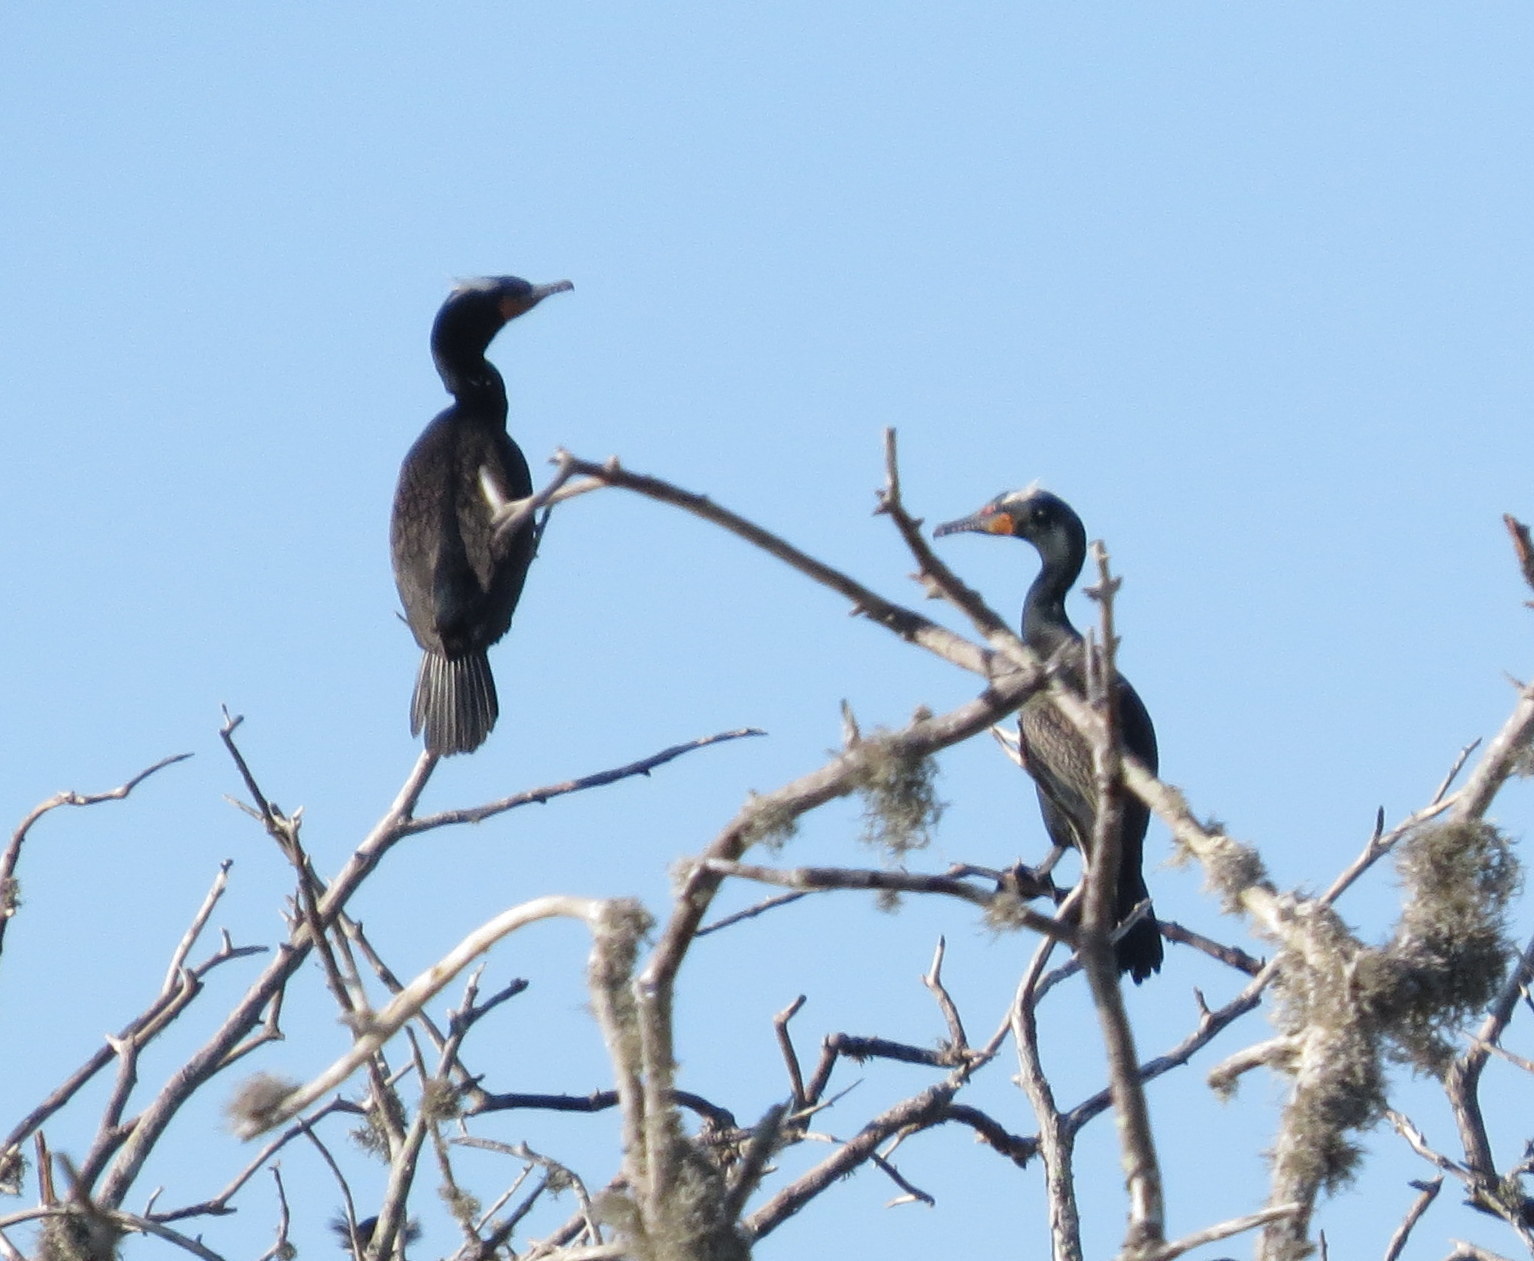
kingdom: Animalia
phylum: Chordata
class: Aves
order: Suliformes
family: Phalacrocoracidae
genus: Phalacrocorax
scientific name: Phalacrocorax auritus
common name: Double-crested cormorant
